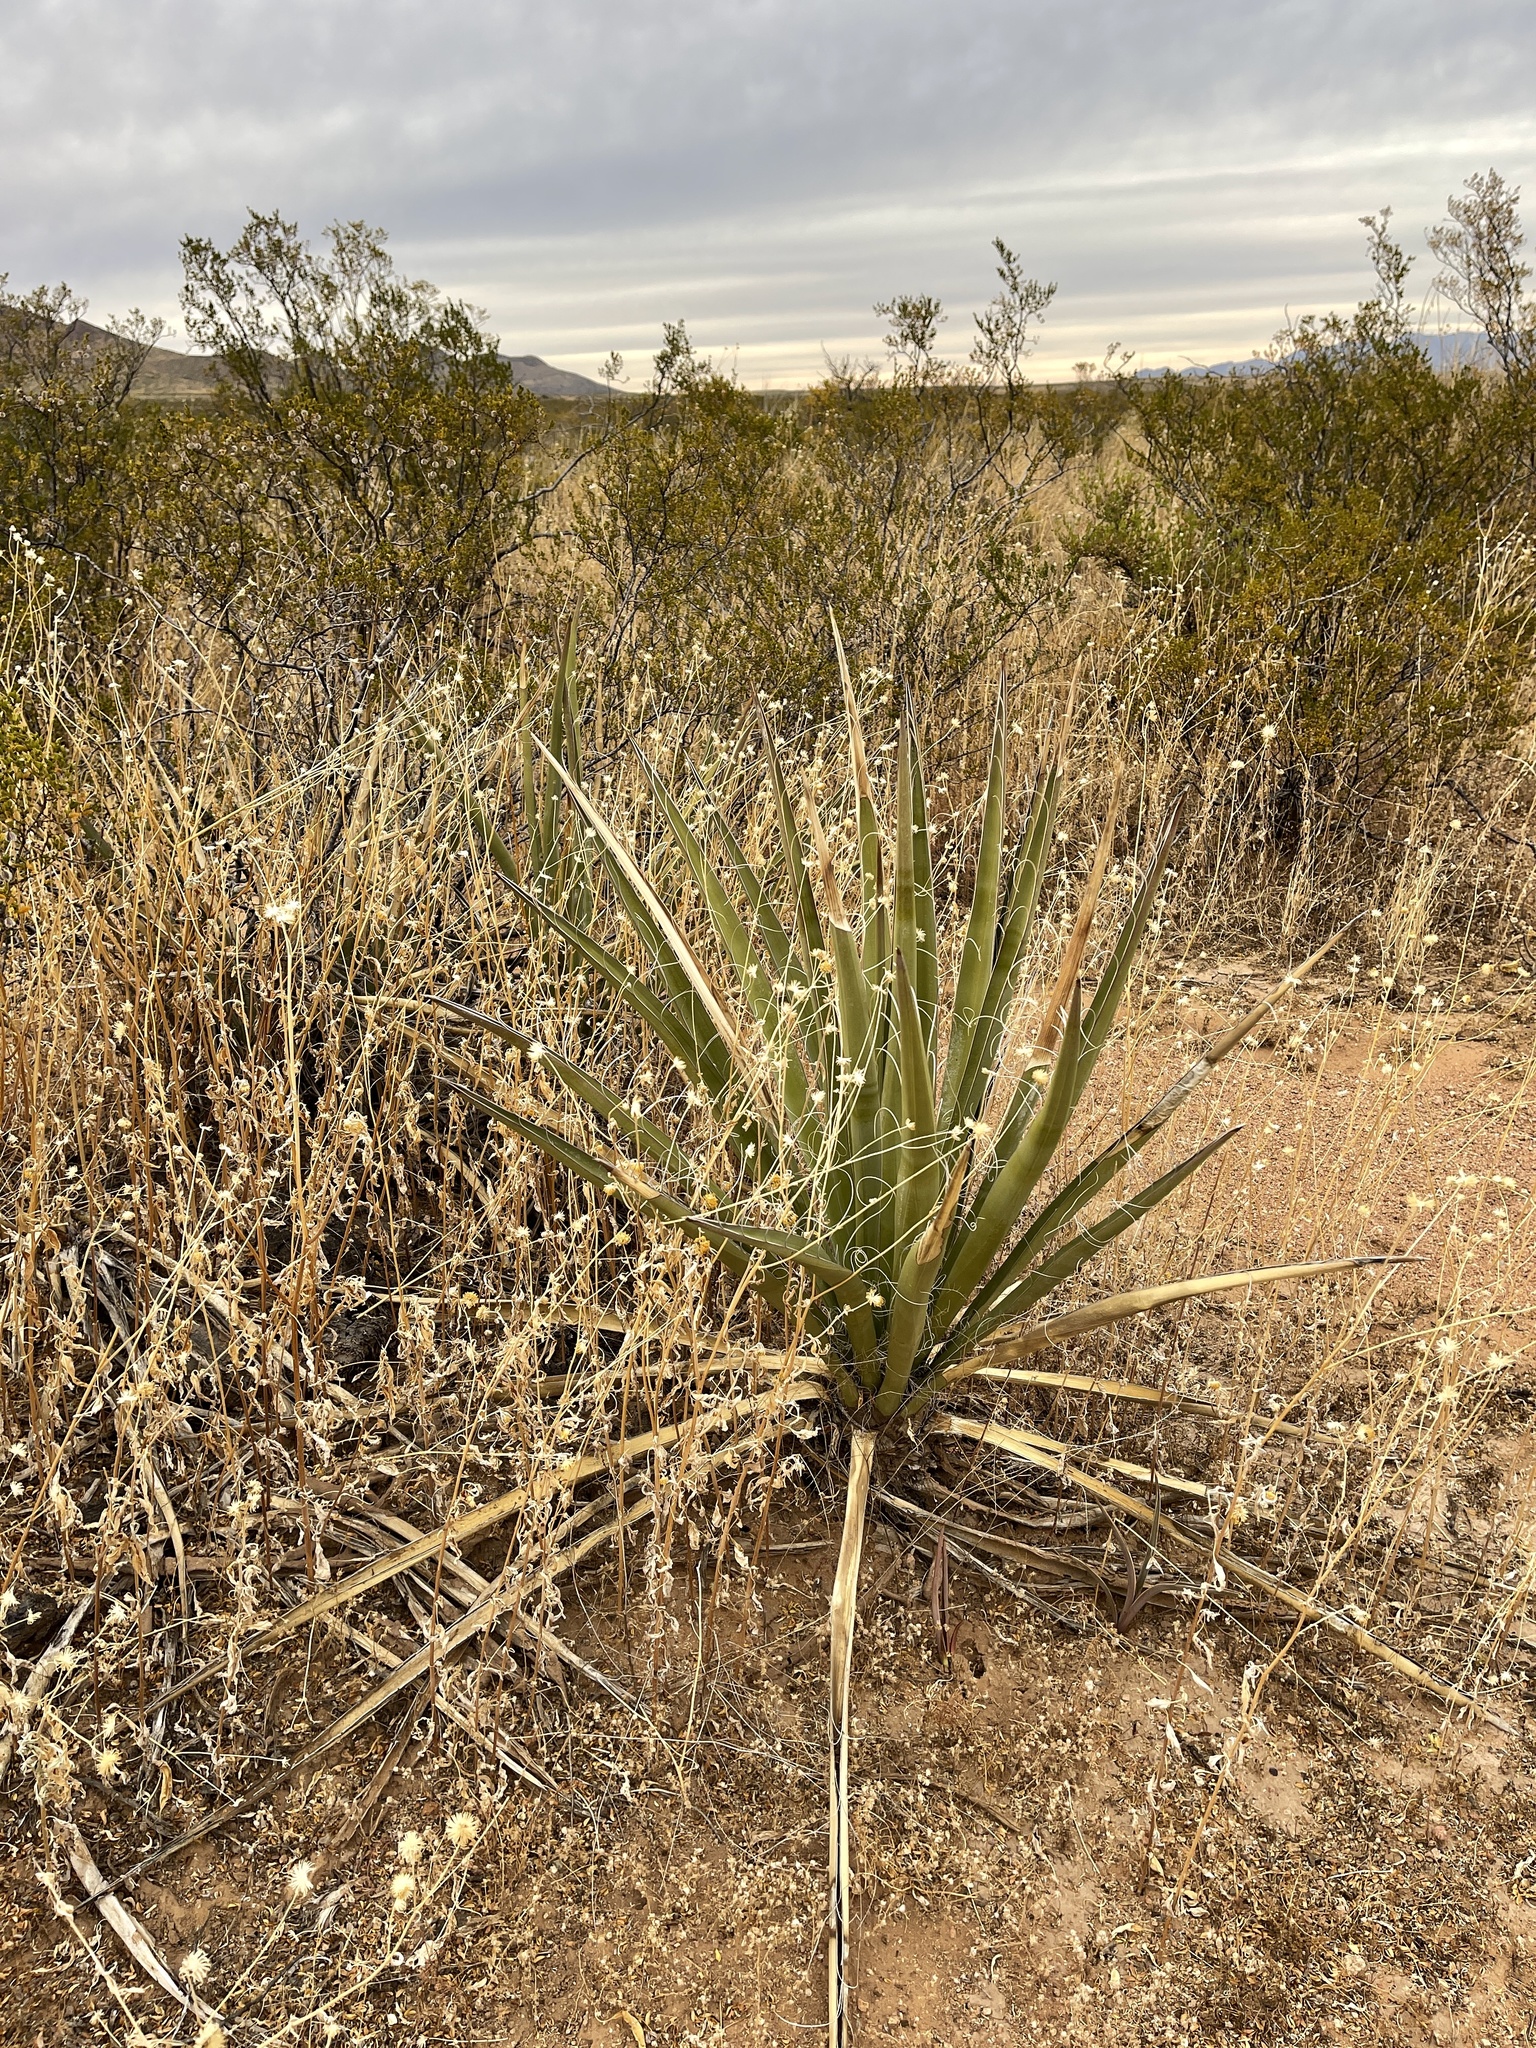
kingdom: Plantae
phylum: Tracheophyta
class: Liliopsida
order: Asparagales
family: Asparagaceae
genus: Yucca
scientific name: Yucca baccata
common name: Banana yucca
